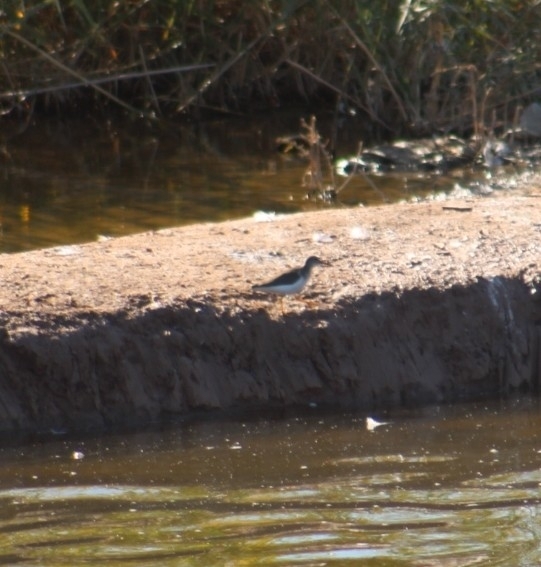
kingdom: Animalia
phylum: Chordata
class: Aves
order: Charadriiformes
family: Scolopacidae
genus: Actitis
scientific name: Actitis macularius
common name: Spotted sandpiper
